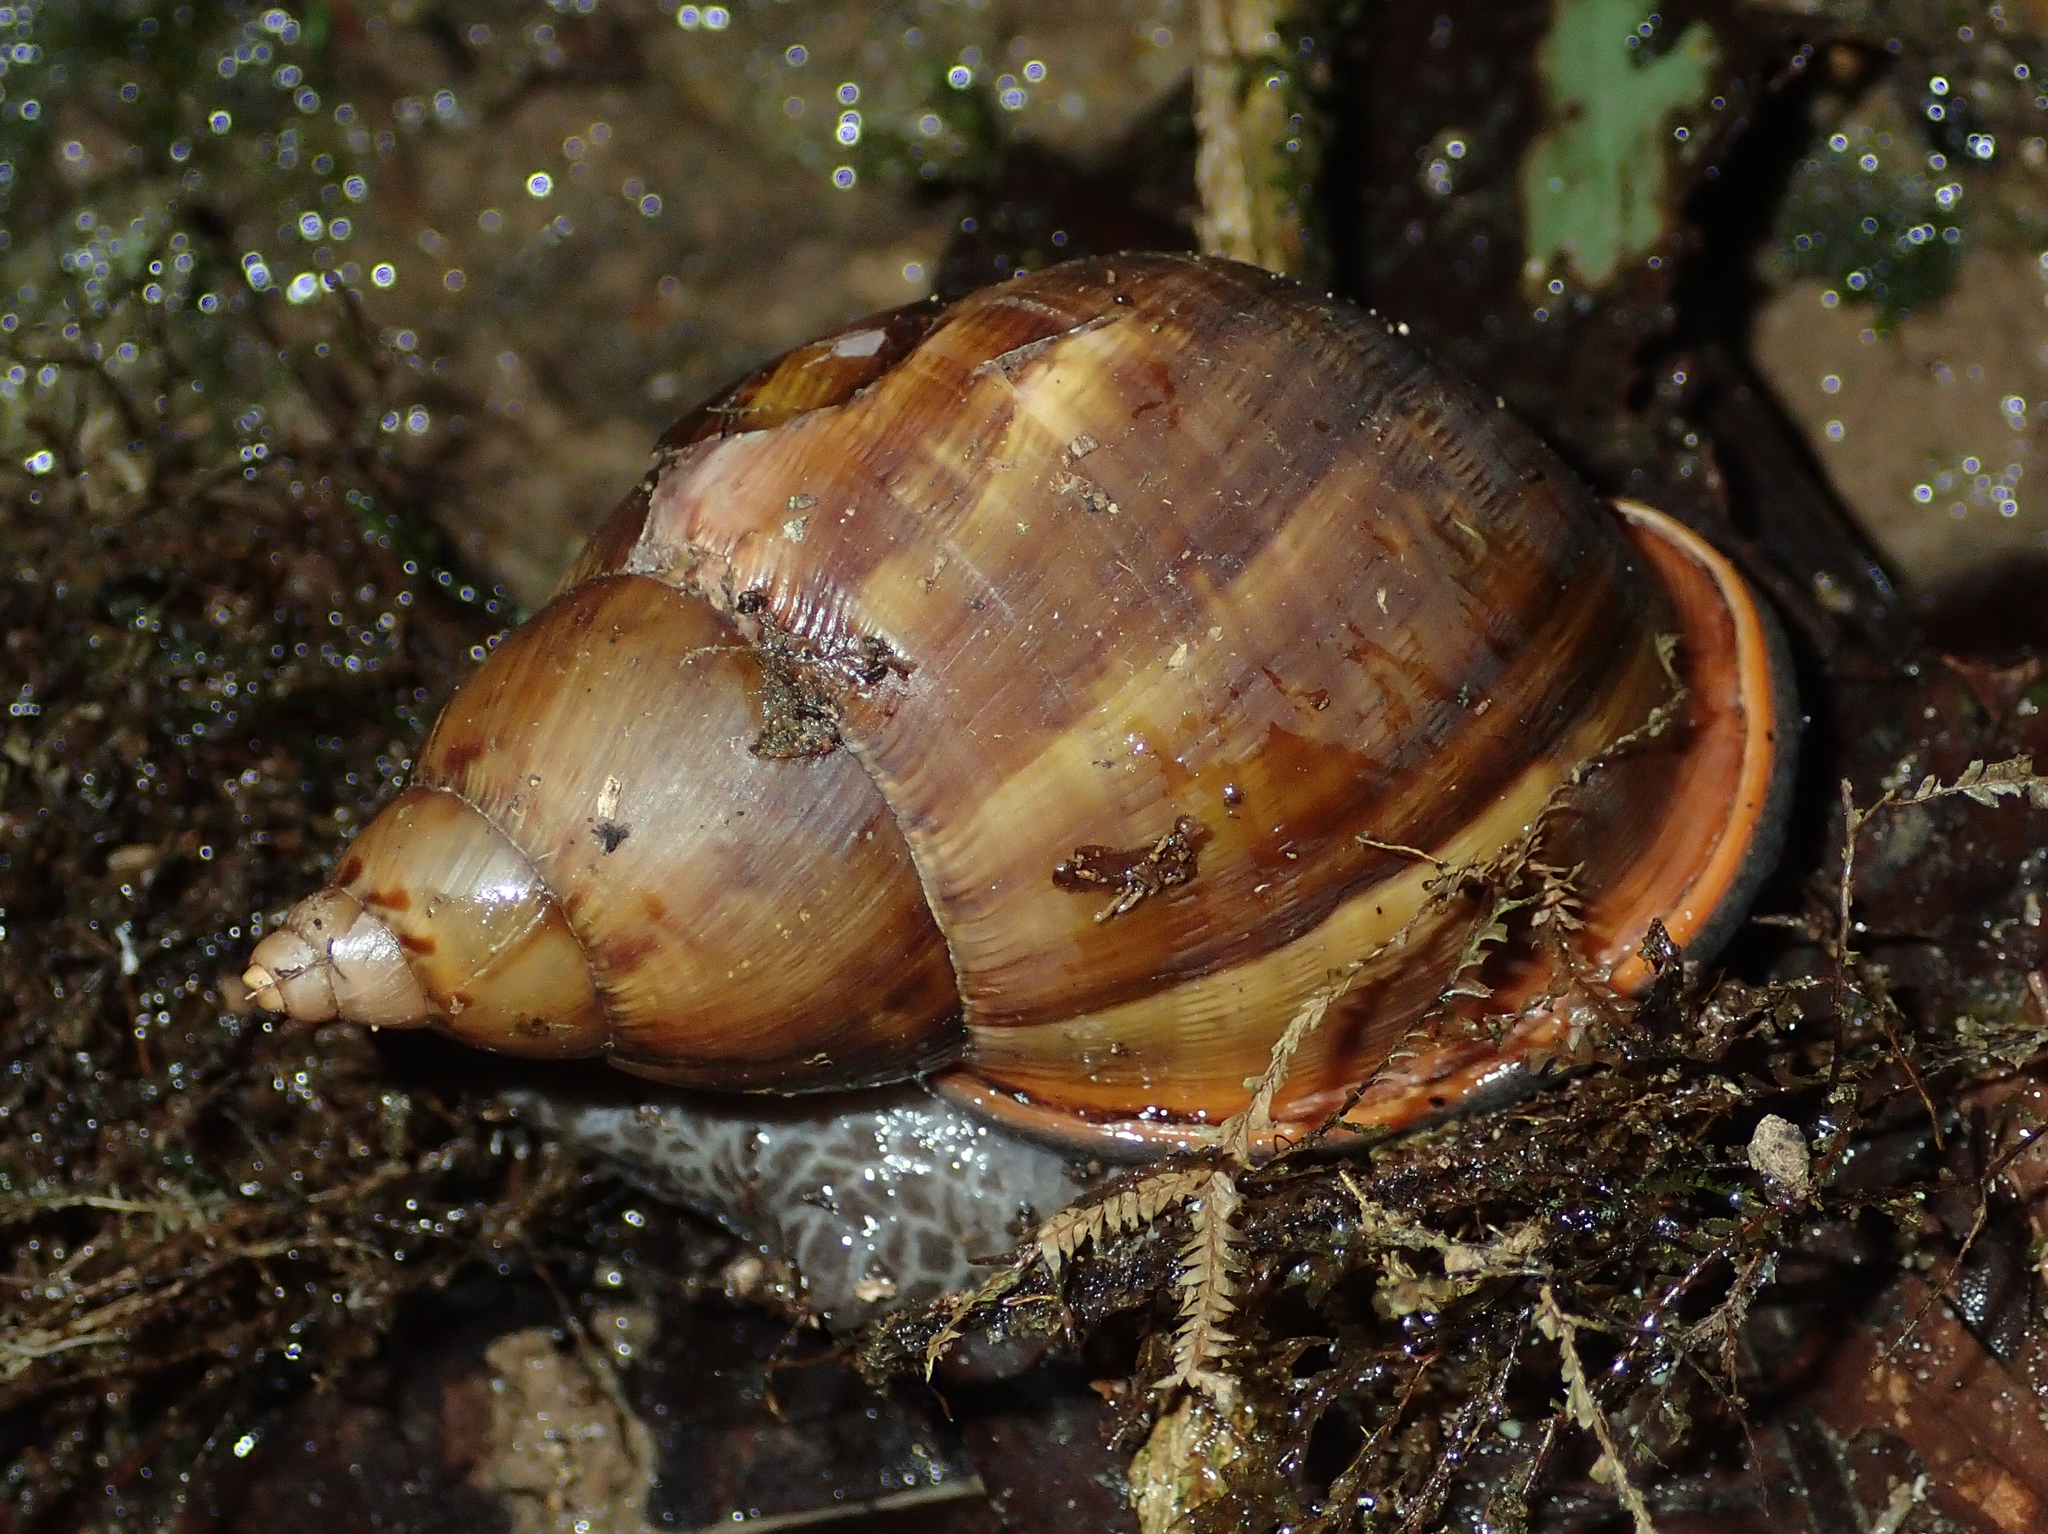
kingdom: Animalia
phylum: Mollusca
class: Gastropoda
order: Stylommatophora
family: Orthalicidae
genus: Porphyrobaphe
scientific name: Porphyrobaphe irrorata
